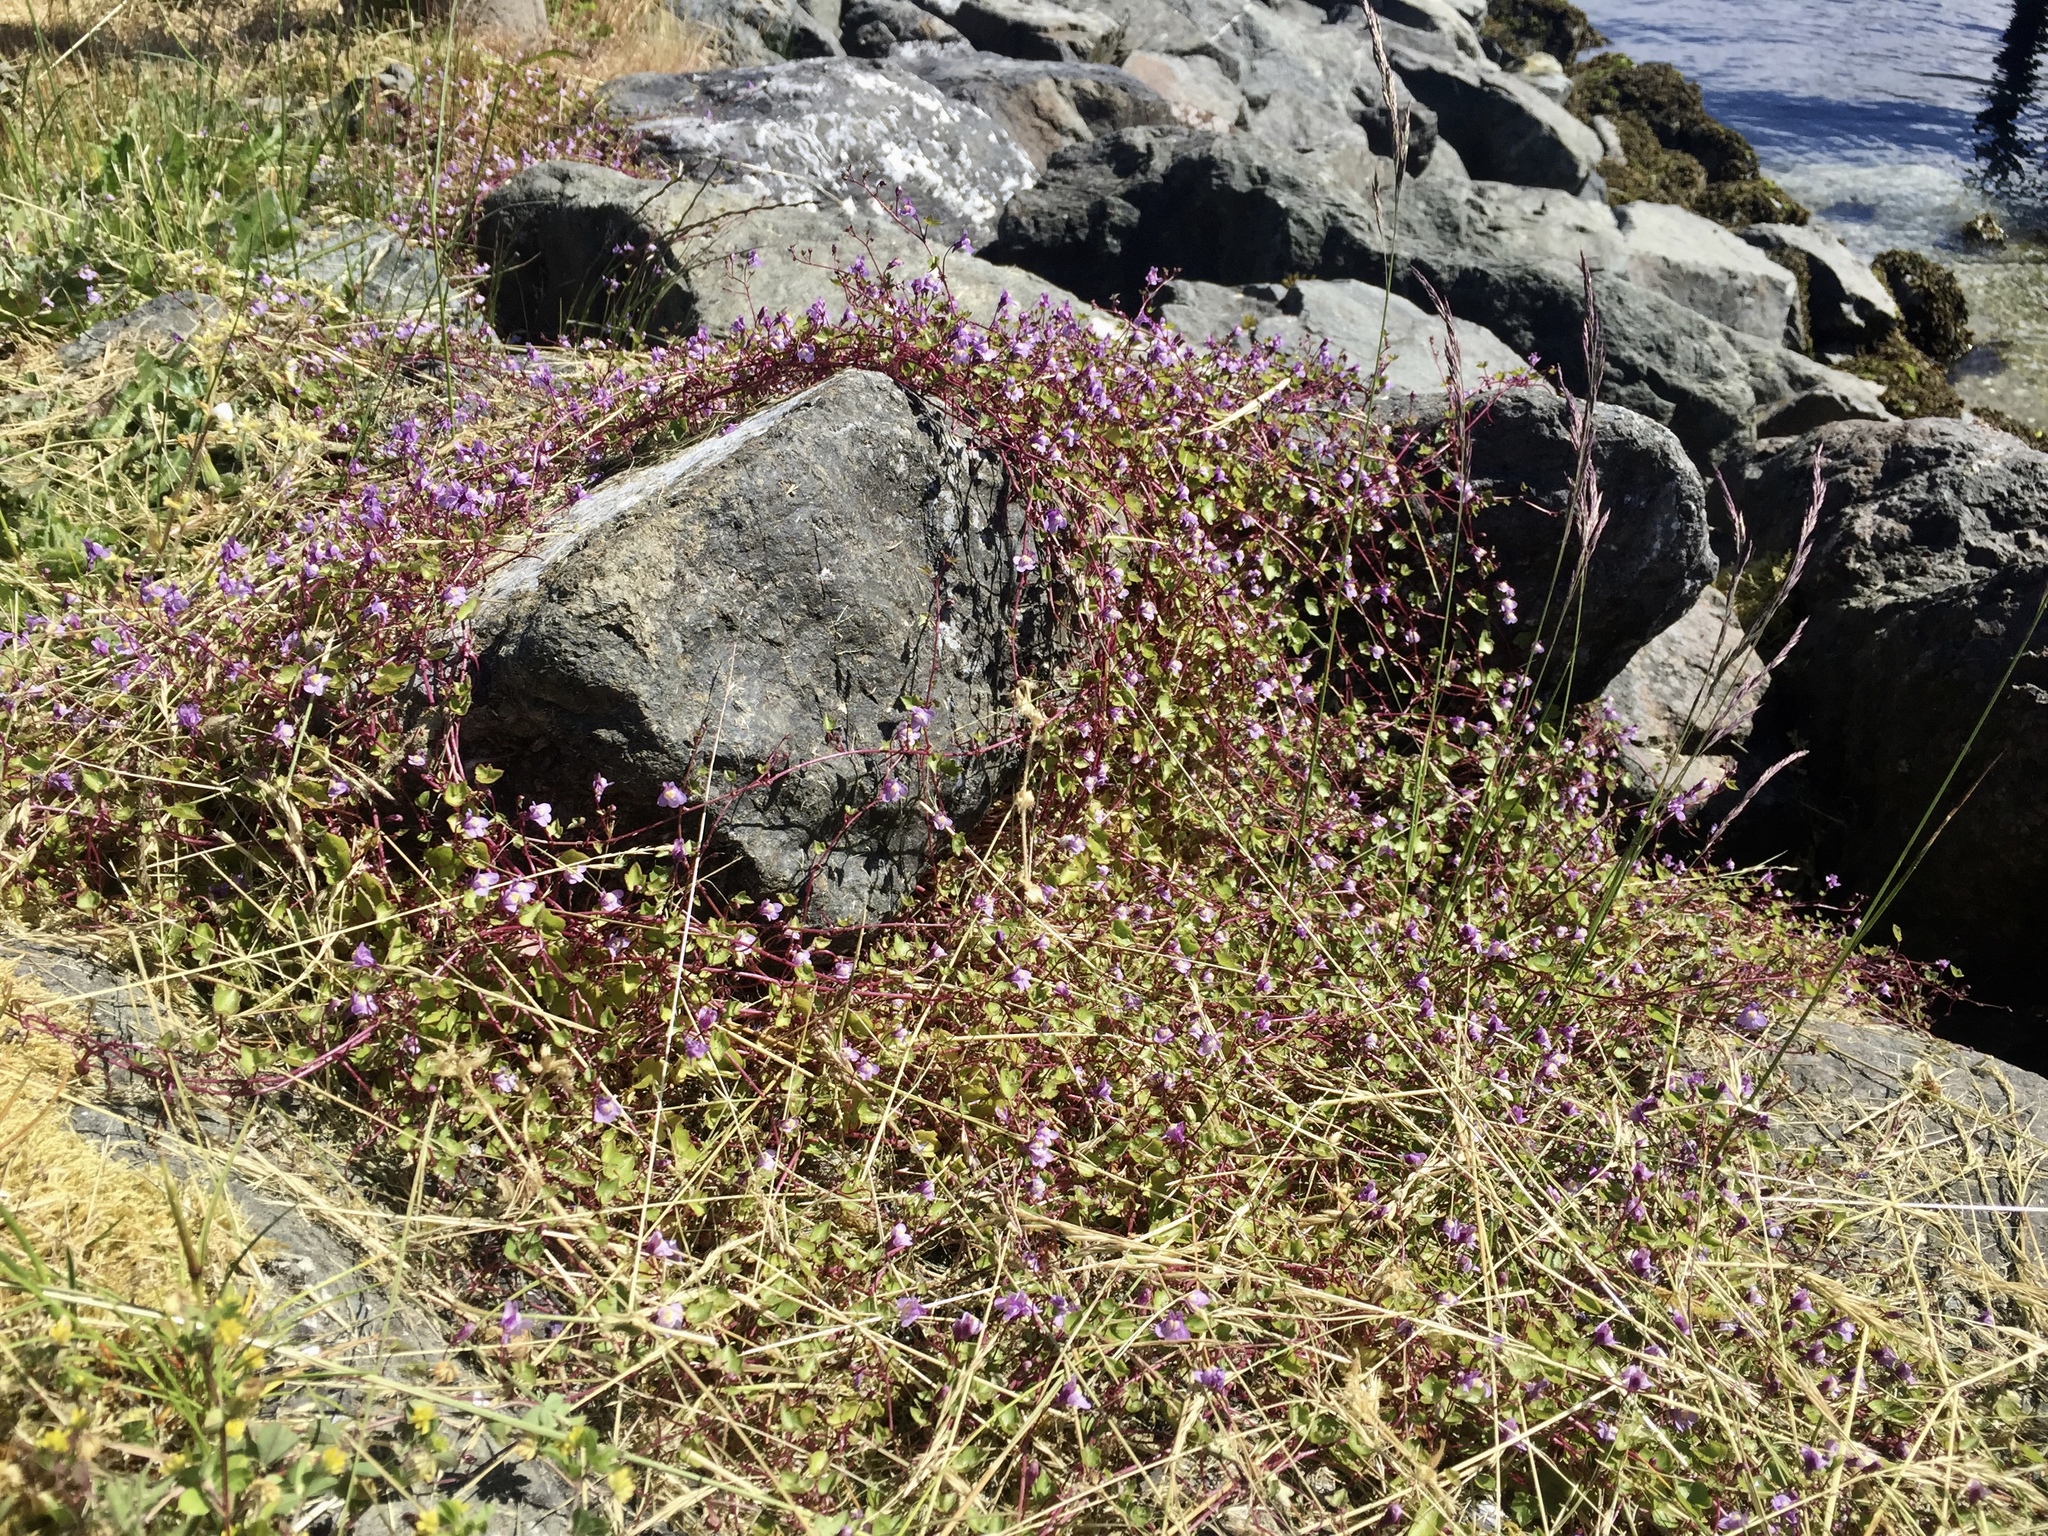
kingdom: Plantae
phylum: Tracheophyta
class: Magnoliopsida
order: Lamiales
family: Plantaginaceae
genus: Cymbalaria
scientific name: Cymbalaria muralis
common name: Ivy-leaved toadflax
